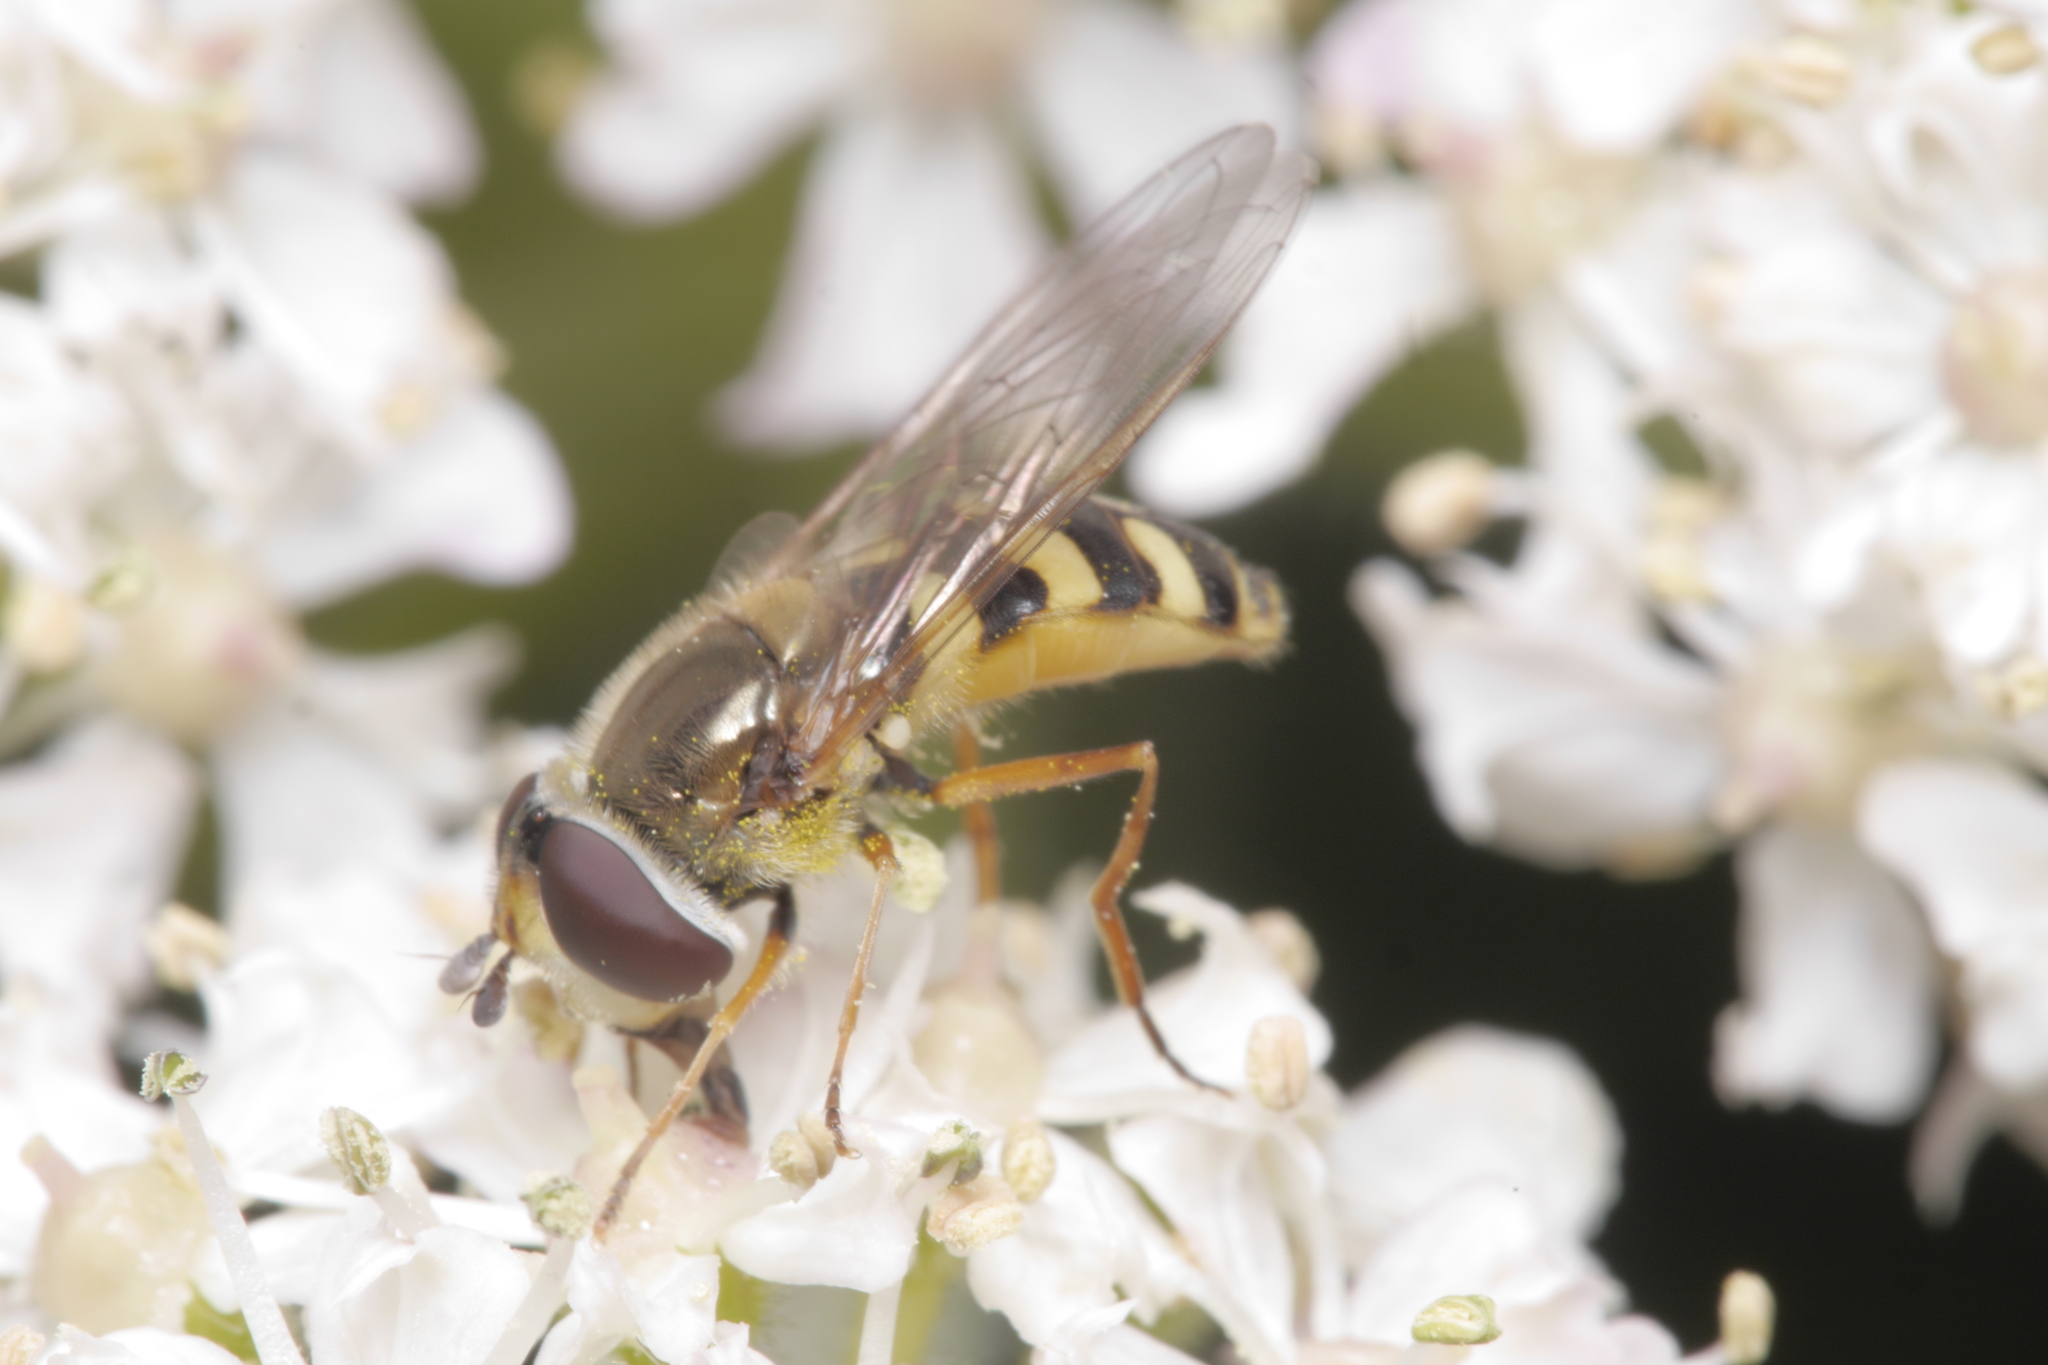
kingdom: Animalia
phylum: Arthropoda
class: Insecta
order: Diptera
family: Syrphidae
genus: Syrphus
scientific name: Syrphus ribesii
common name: Common flower fly
